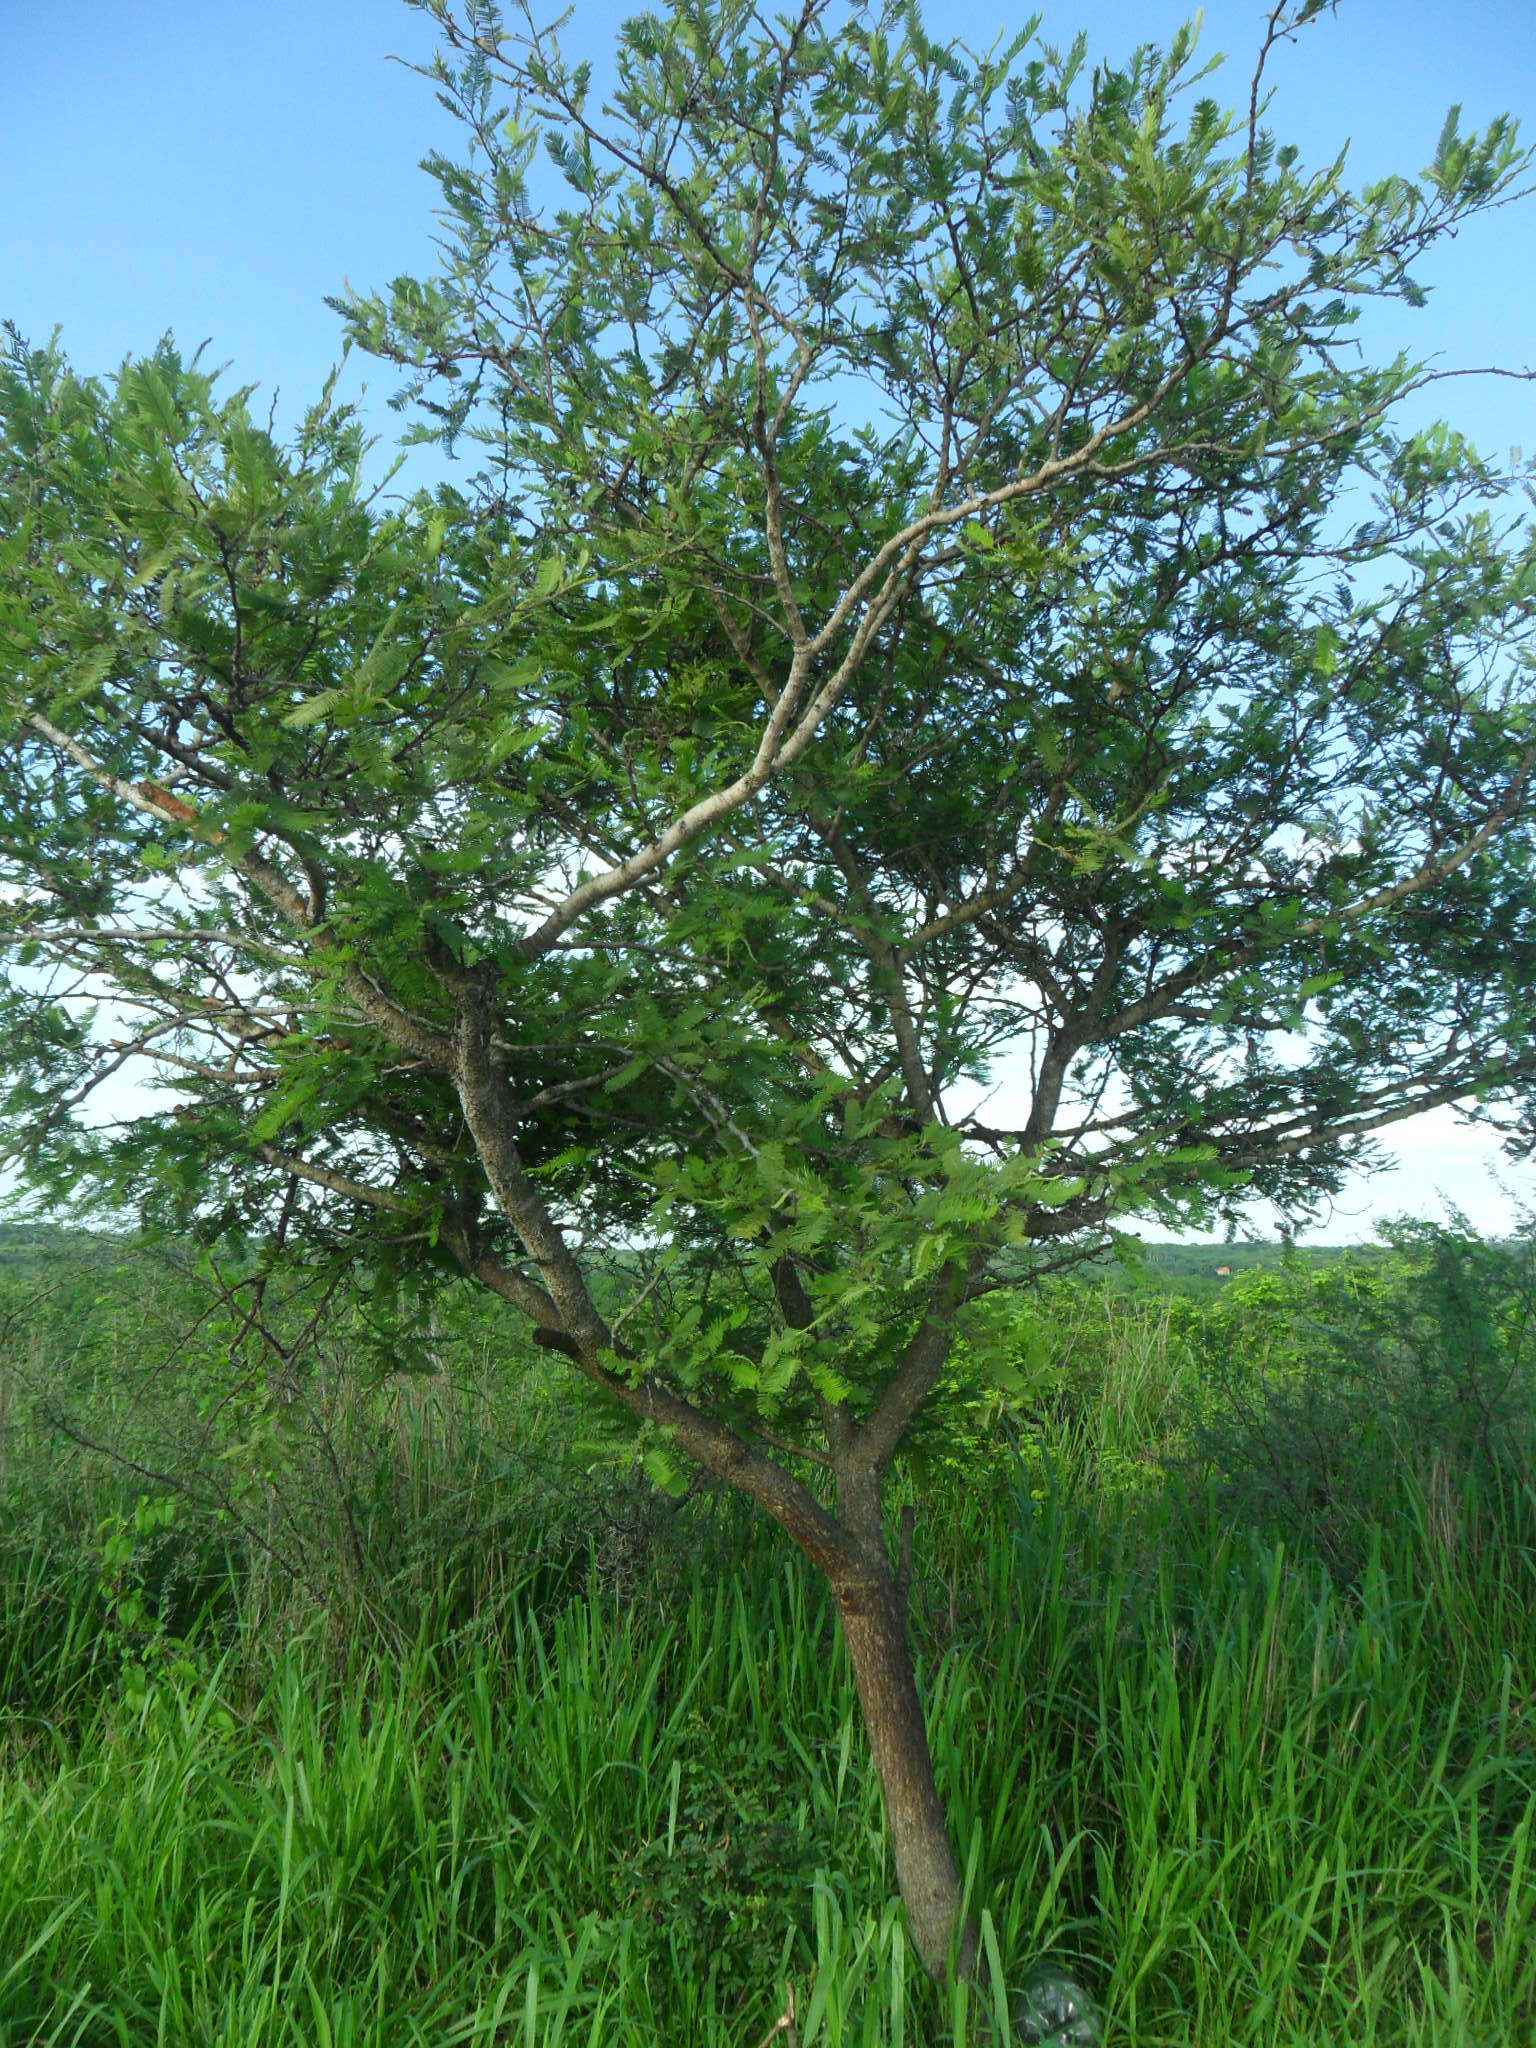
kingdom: Plantae
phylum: Tracheophyta
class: Magnoliopsida
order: Fabales
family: Fabaceae
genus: Vachellia
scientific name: Vachellia pennatula
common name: Fern-leaf acacia
